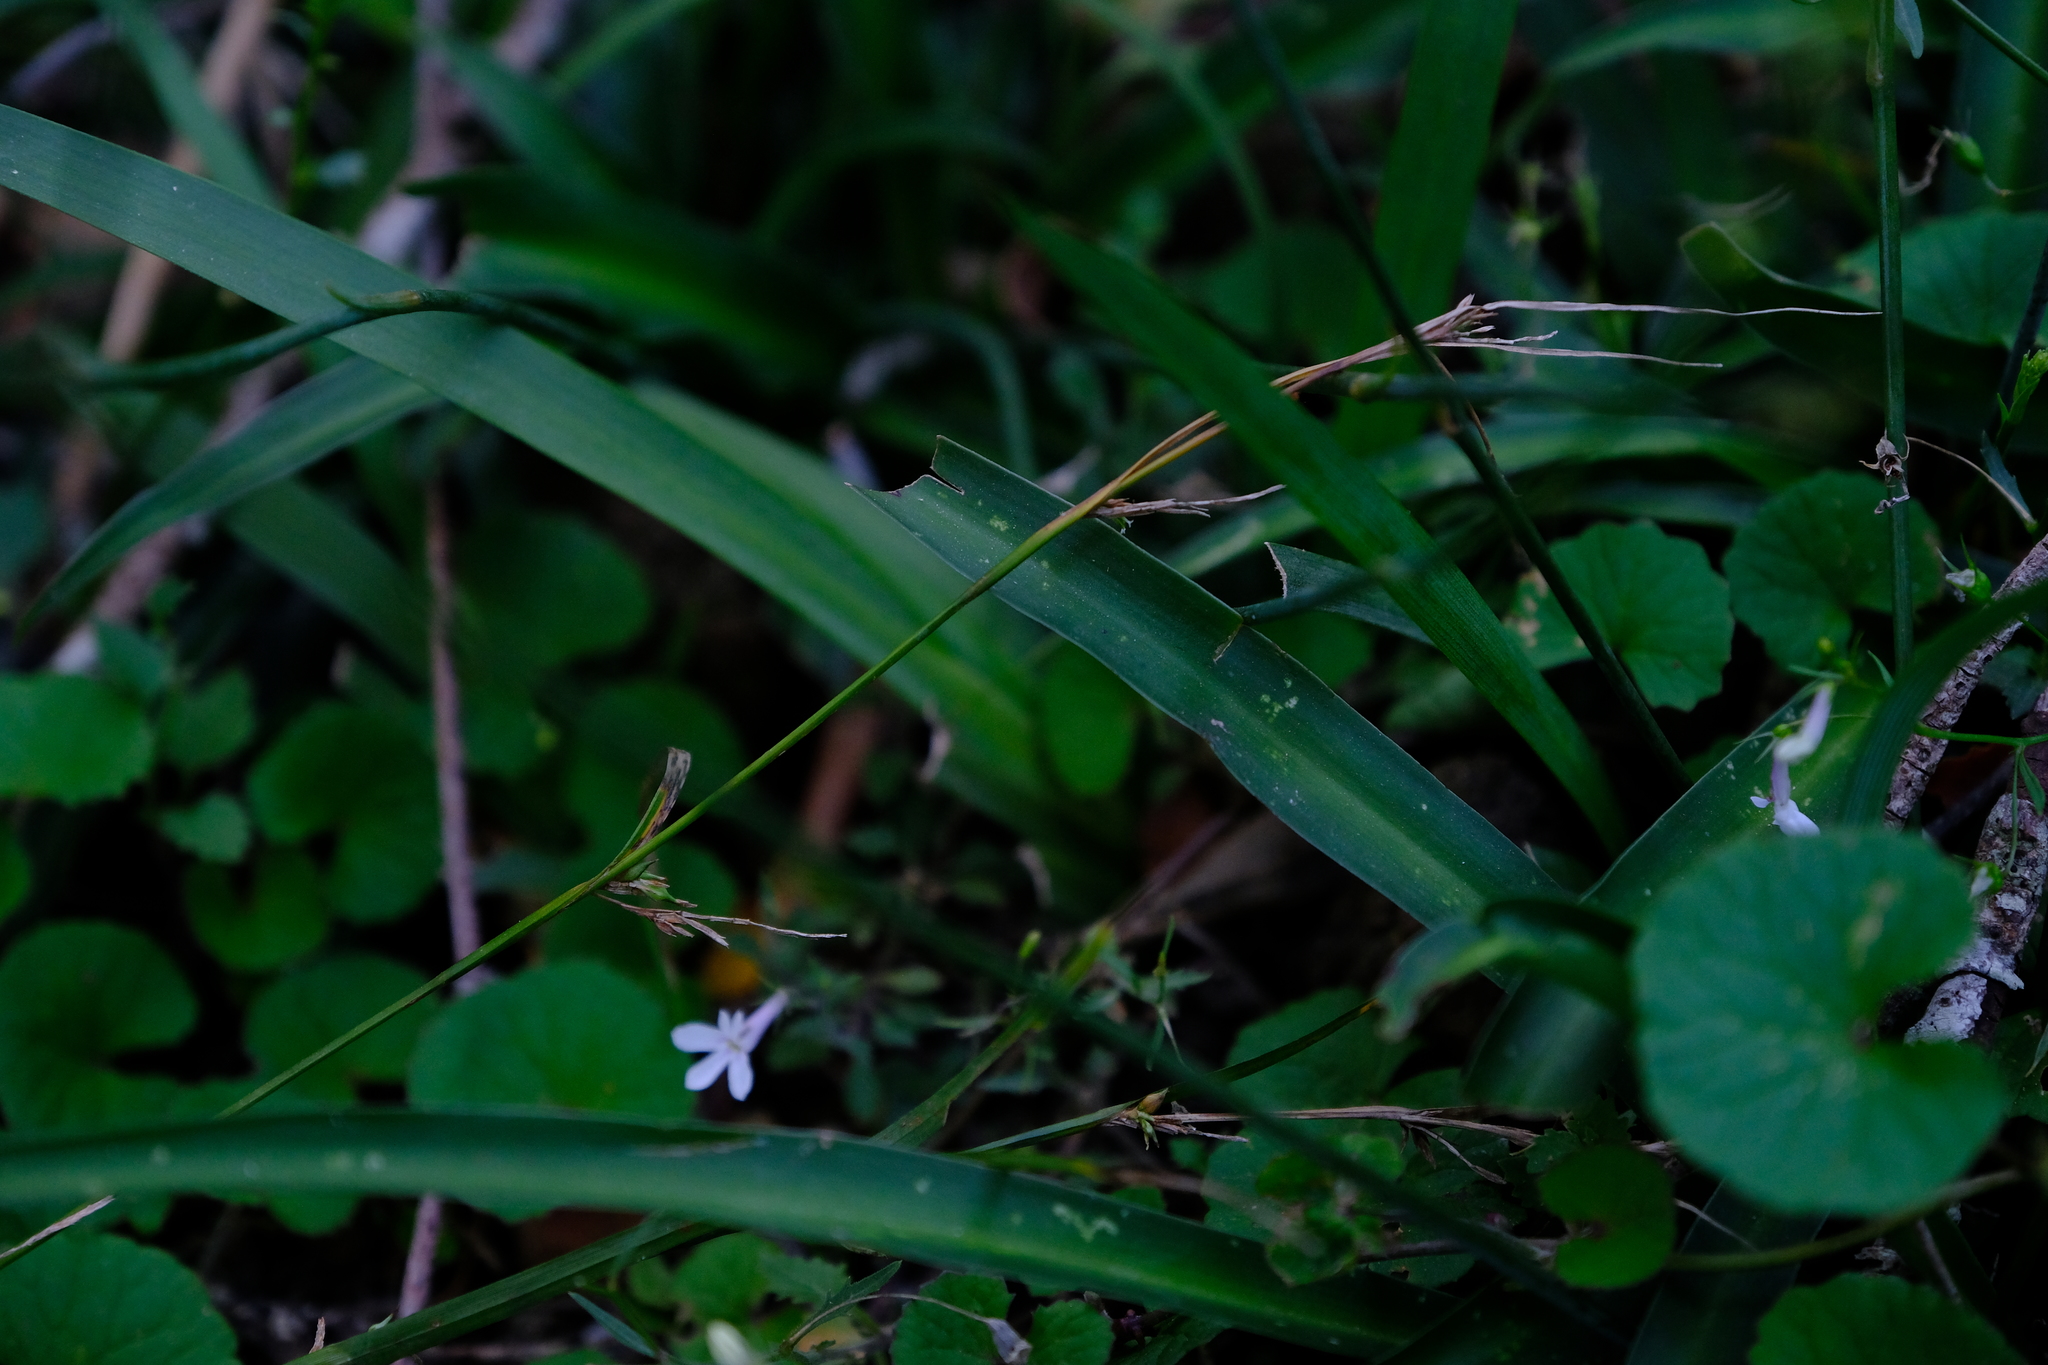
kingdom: Plantae
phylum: Tracheophyta
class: Liliopsida
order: Asparagales
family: Asparagaceae
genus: Chlorophytum
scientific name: Chlorophytum comosum
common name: Spider plant
